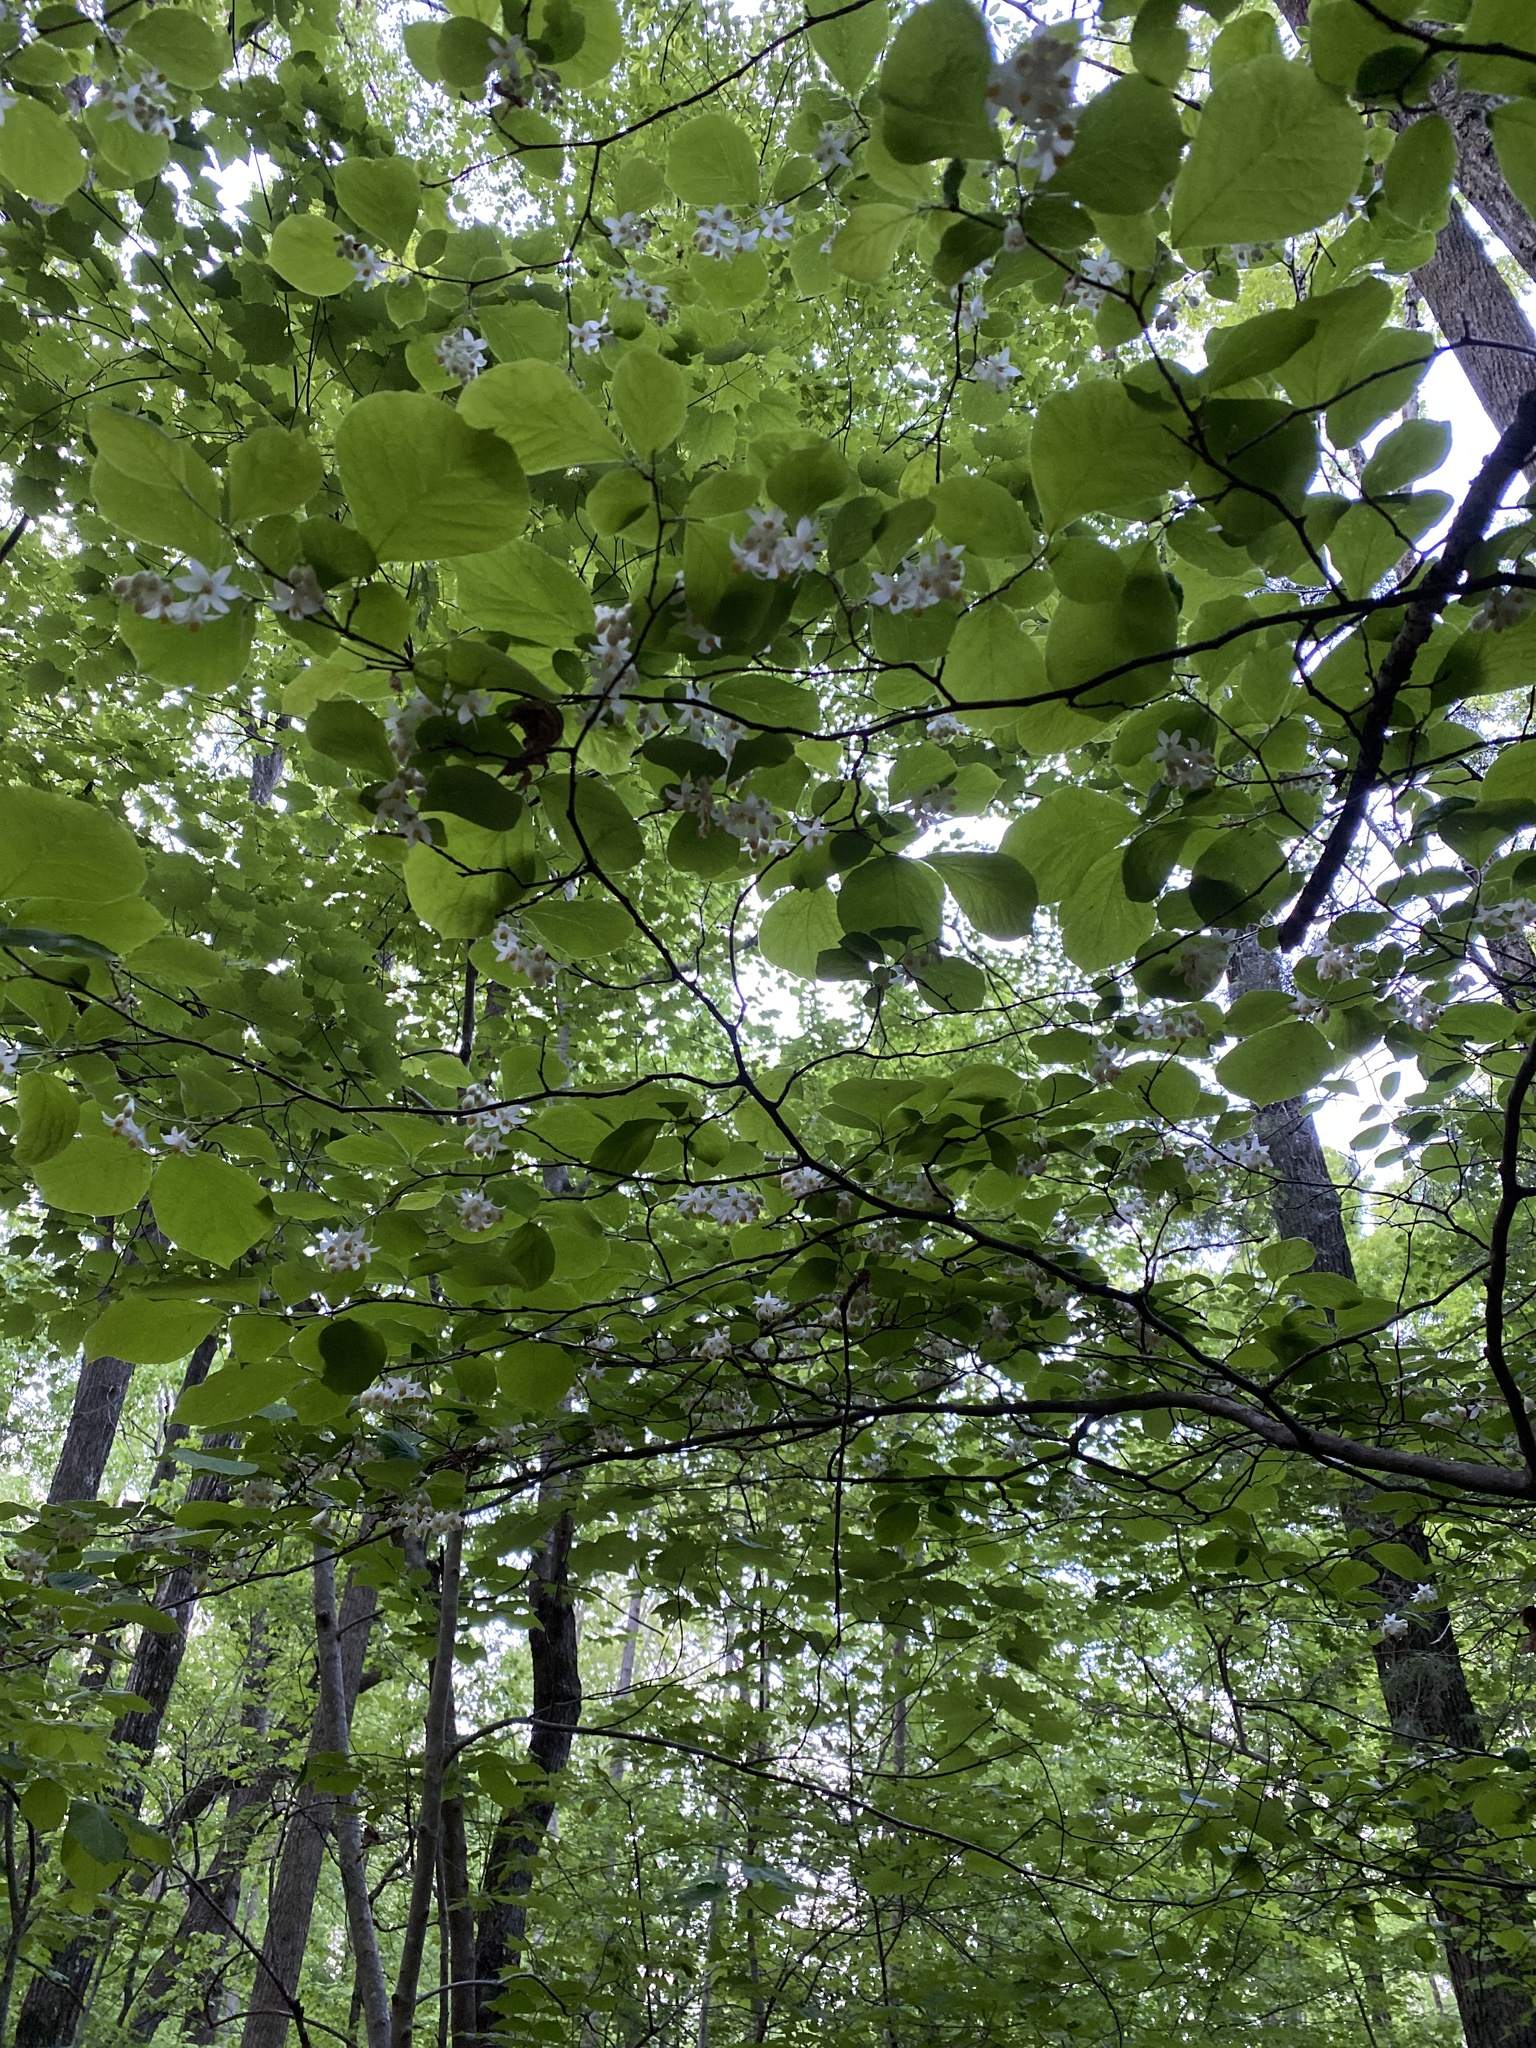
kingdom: Plantae
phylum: Tracheophyta
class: Magnoliopsida
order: Ericales
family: Styracaceae
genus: Styrax
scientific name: Styrax grandifolius
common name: Big-leaf snowbell
